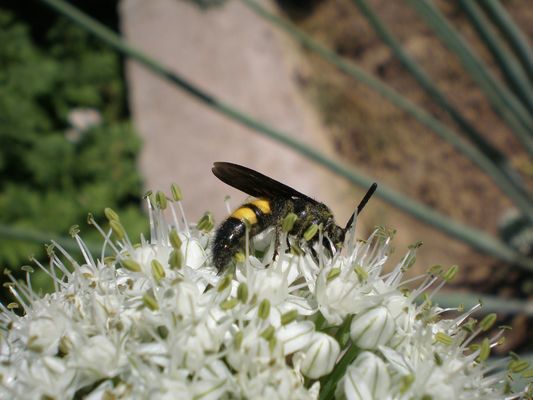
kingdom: Animalia
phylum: Arthropoda
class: Insecta
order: Hymenoptera
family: Scoliidae
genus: Scolia
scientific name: Scolia hirta
